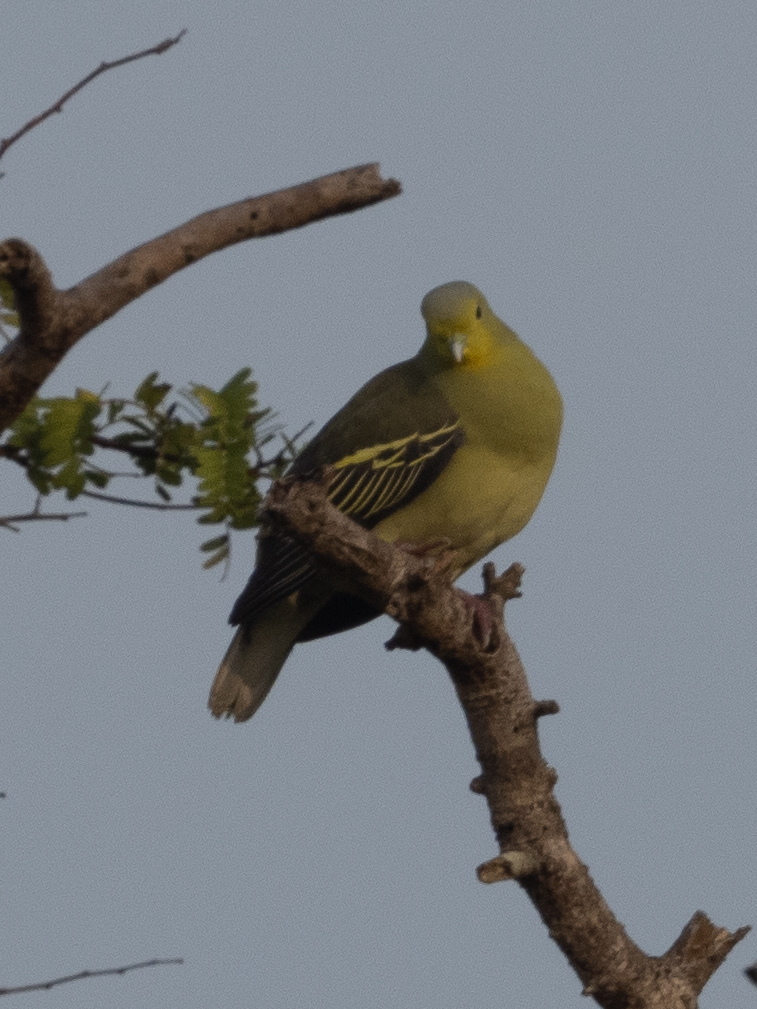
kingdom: Animalia
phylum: Chordata
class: Aves
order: Columbiformes
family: Columbidae
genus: Treron
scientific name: Treron pompadora
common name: Pompadour green pigeon
